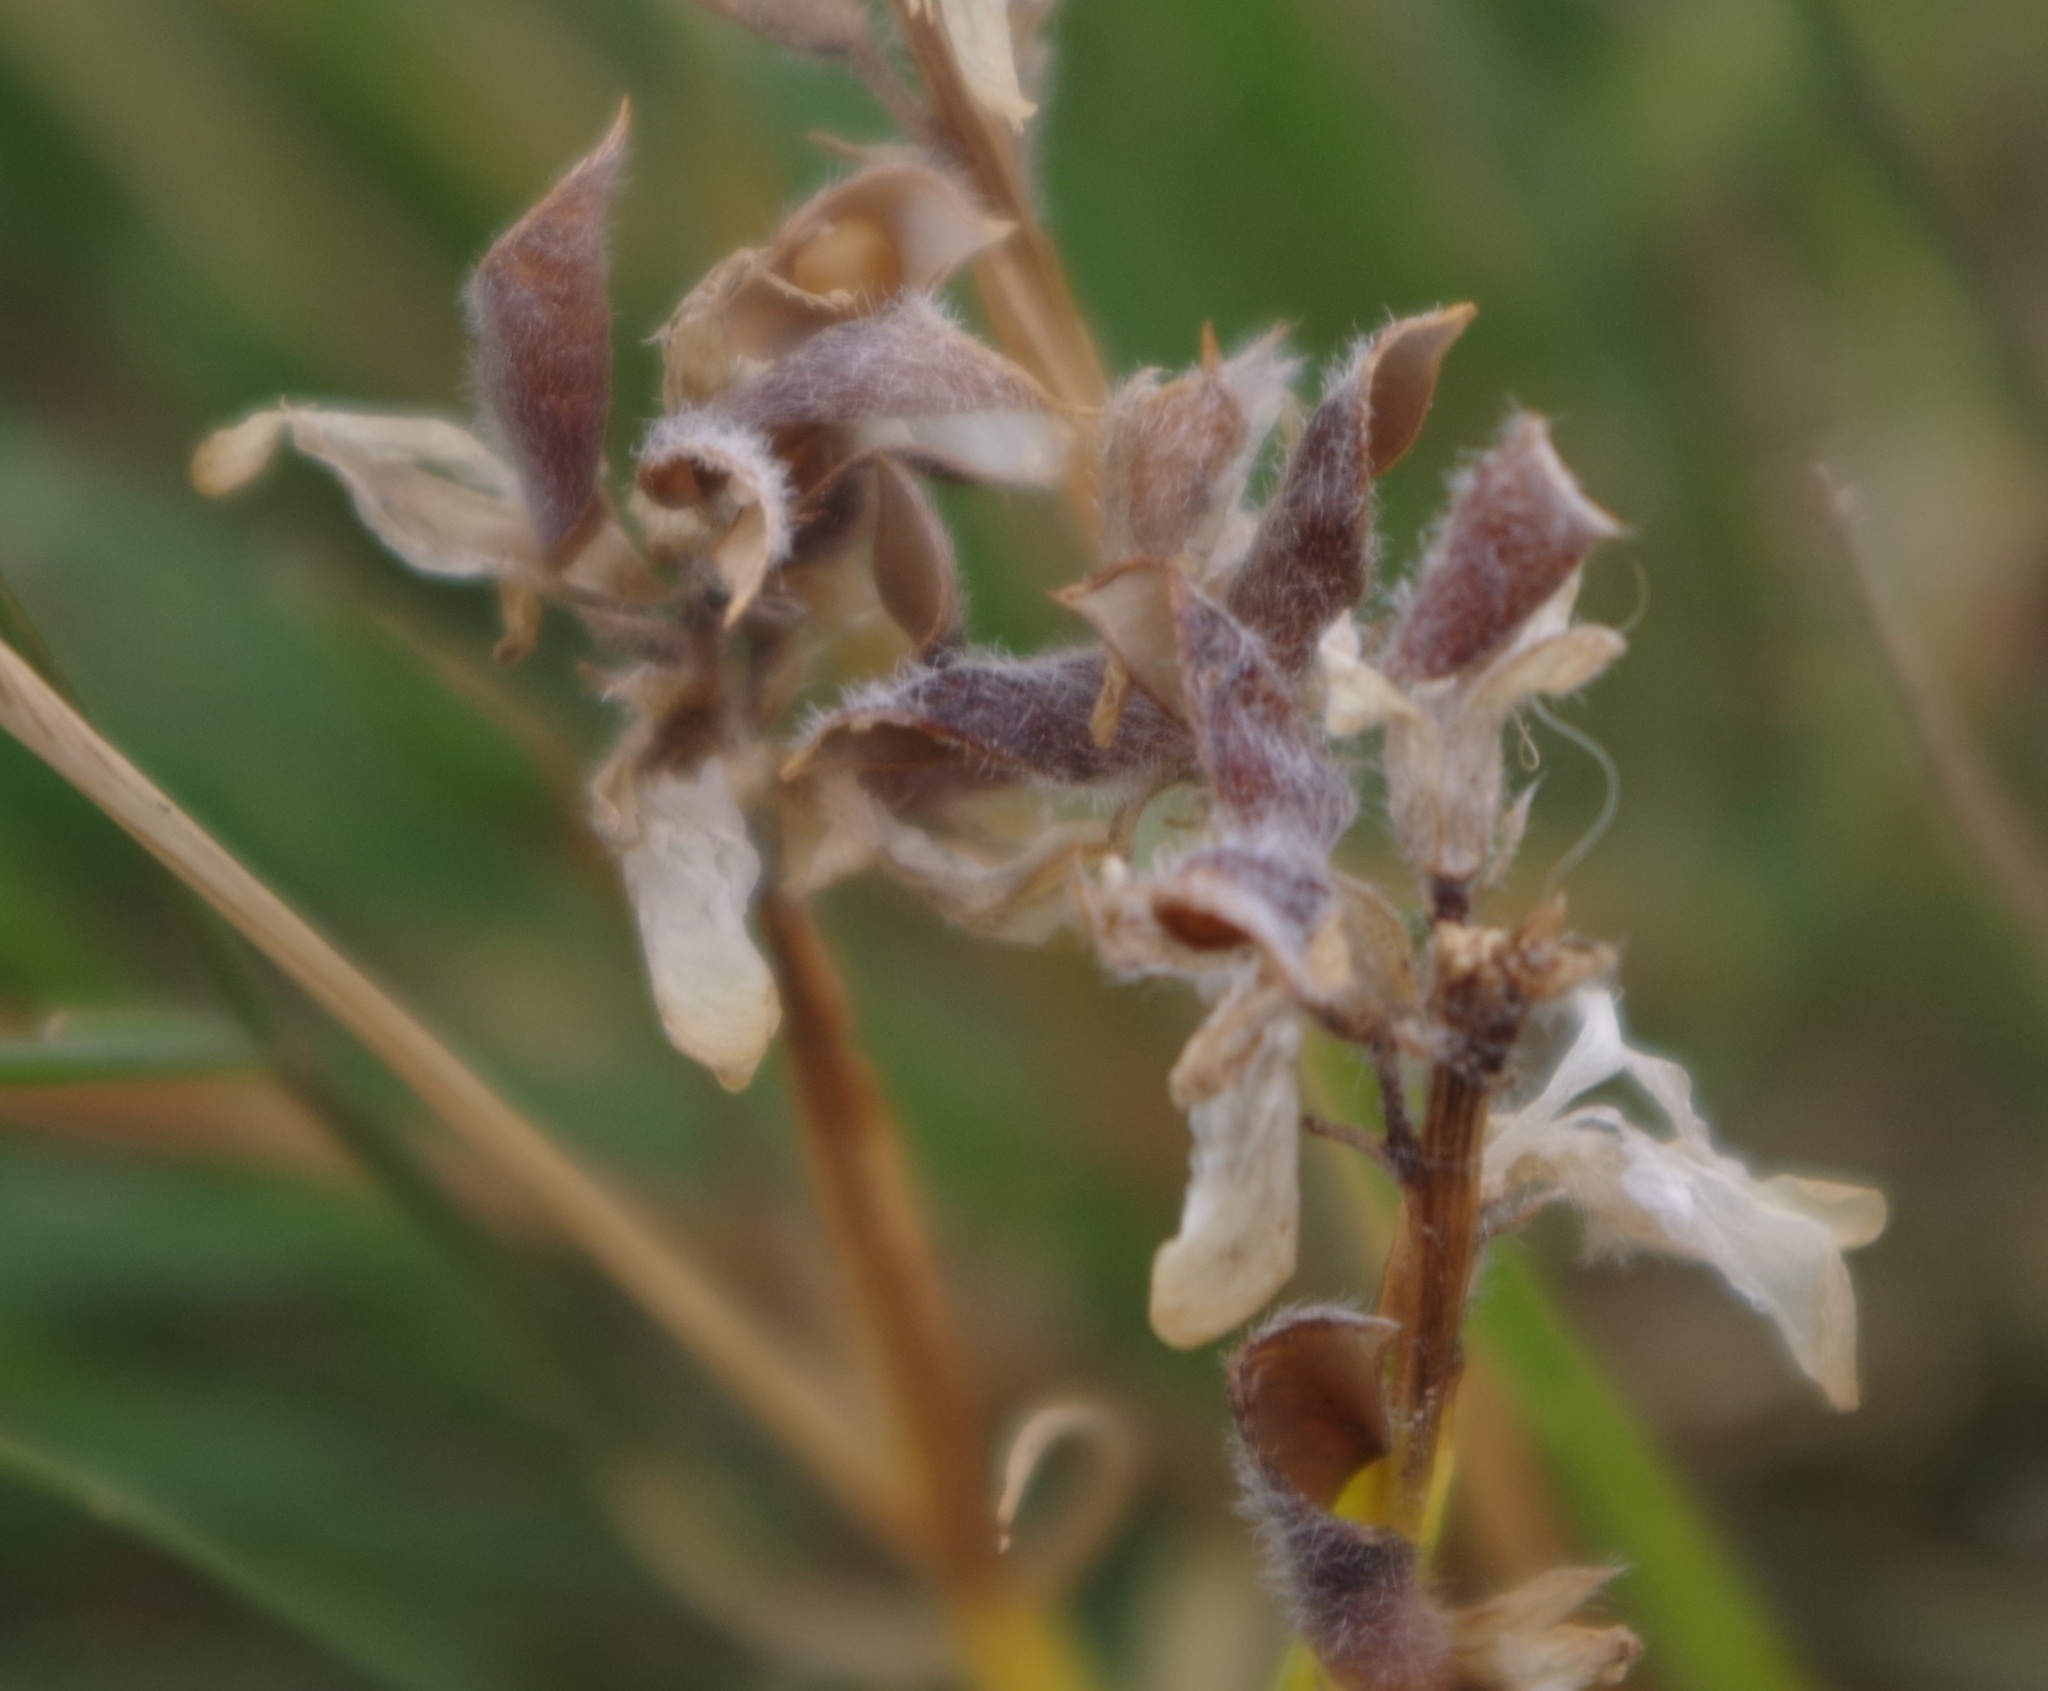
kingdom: Plantae
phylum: Tracheophyta
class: Magnoliopsida
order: Fabales
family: Fabaceae
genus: Genista
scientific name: Genista sagittalis
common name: Winged greenweed
